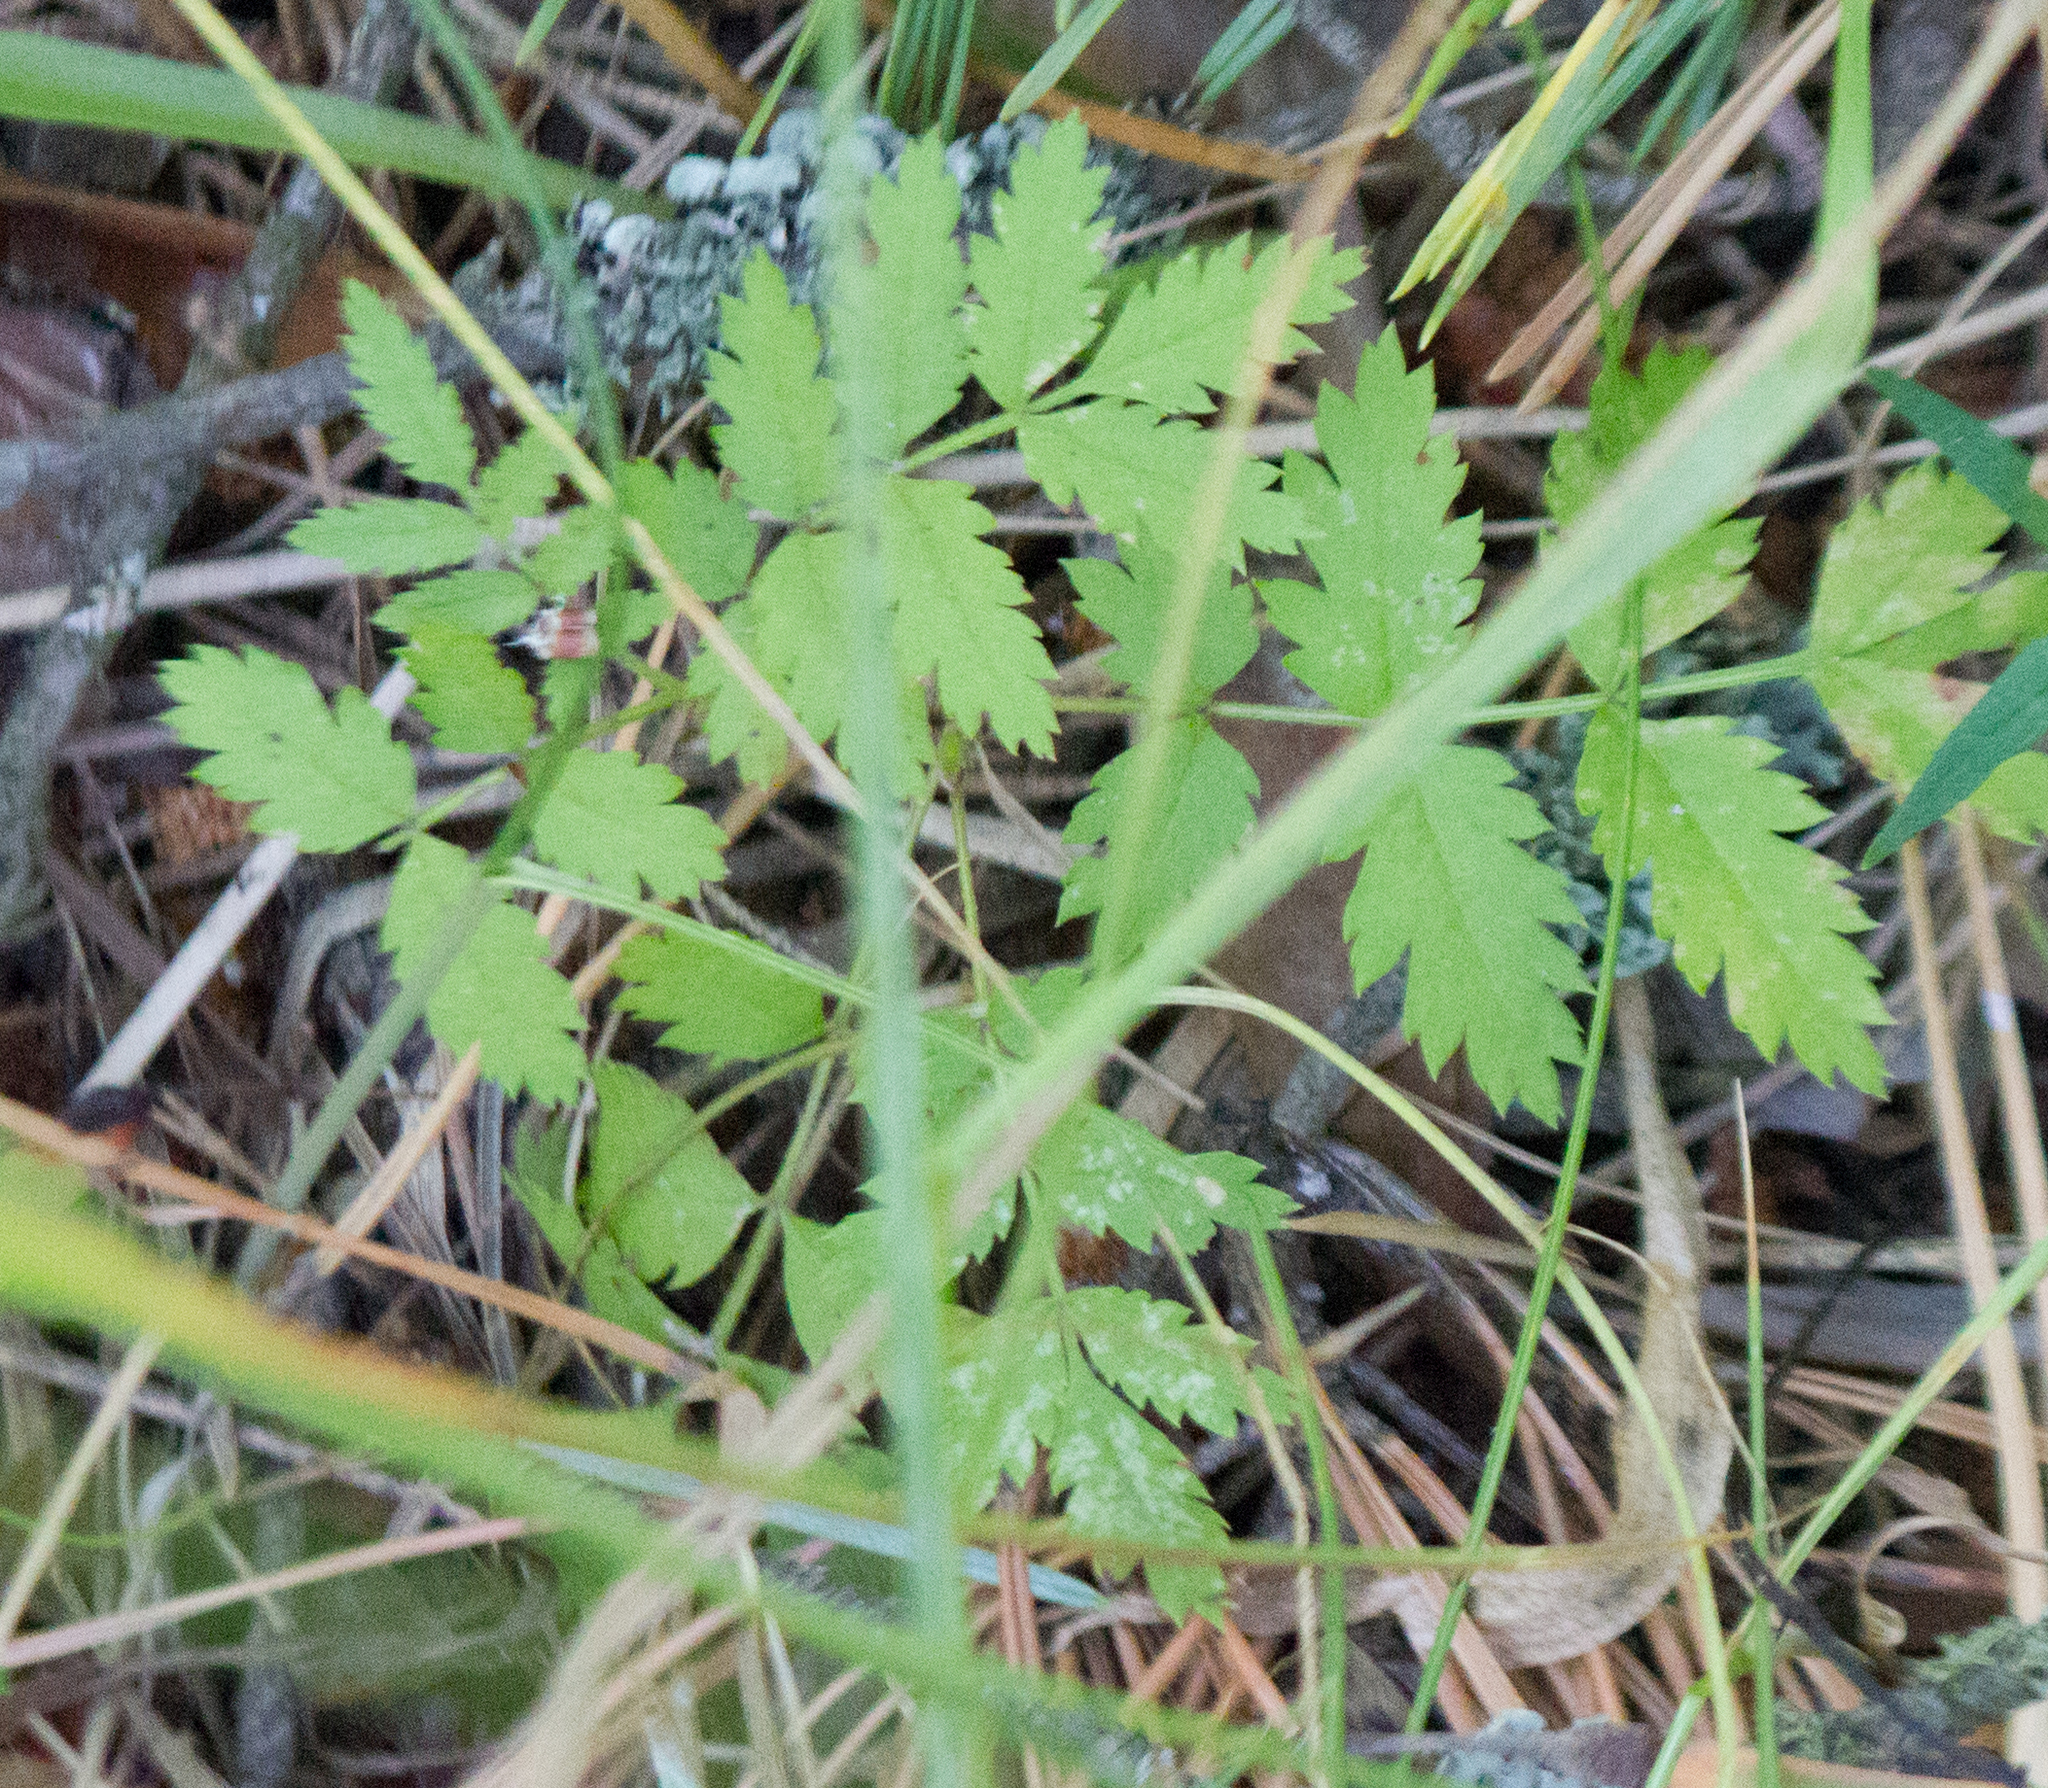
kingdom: Plantae
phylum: Tracheophyta
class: Magnoliopsida
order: Rosales
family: Rosaceae
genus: Sorbus
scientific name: Sorbus aucuparia
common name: Rowan
